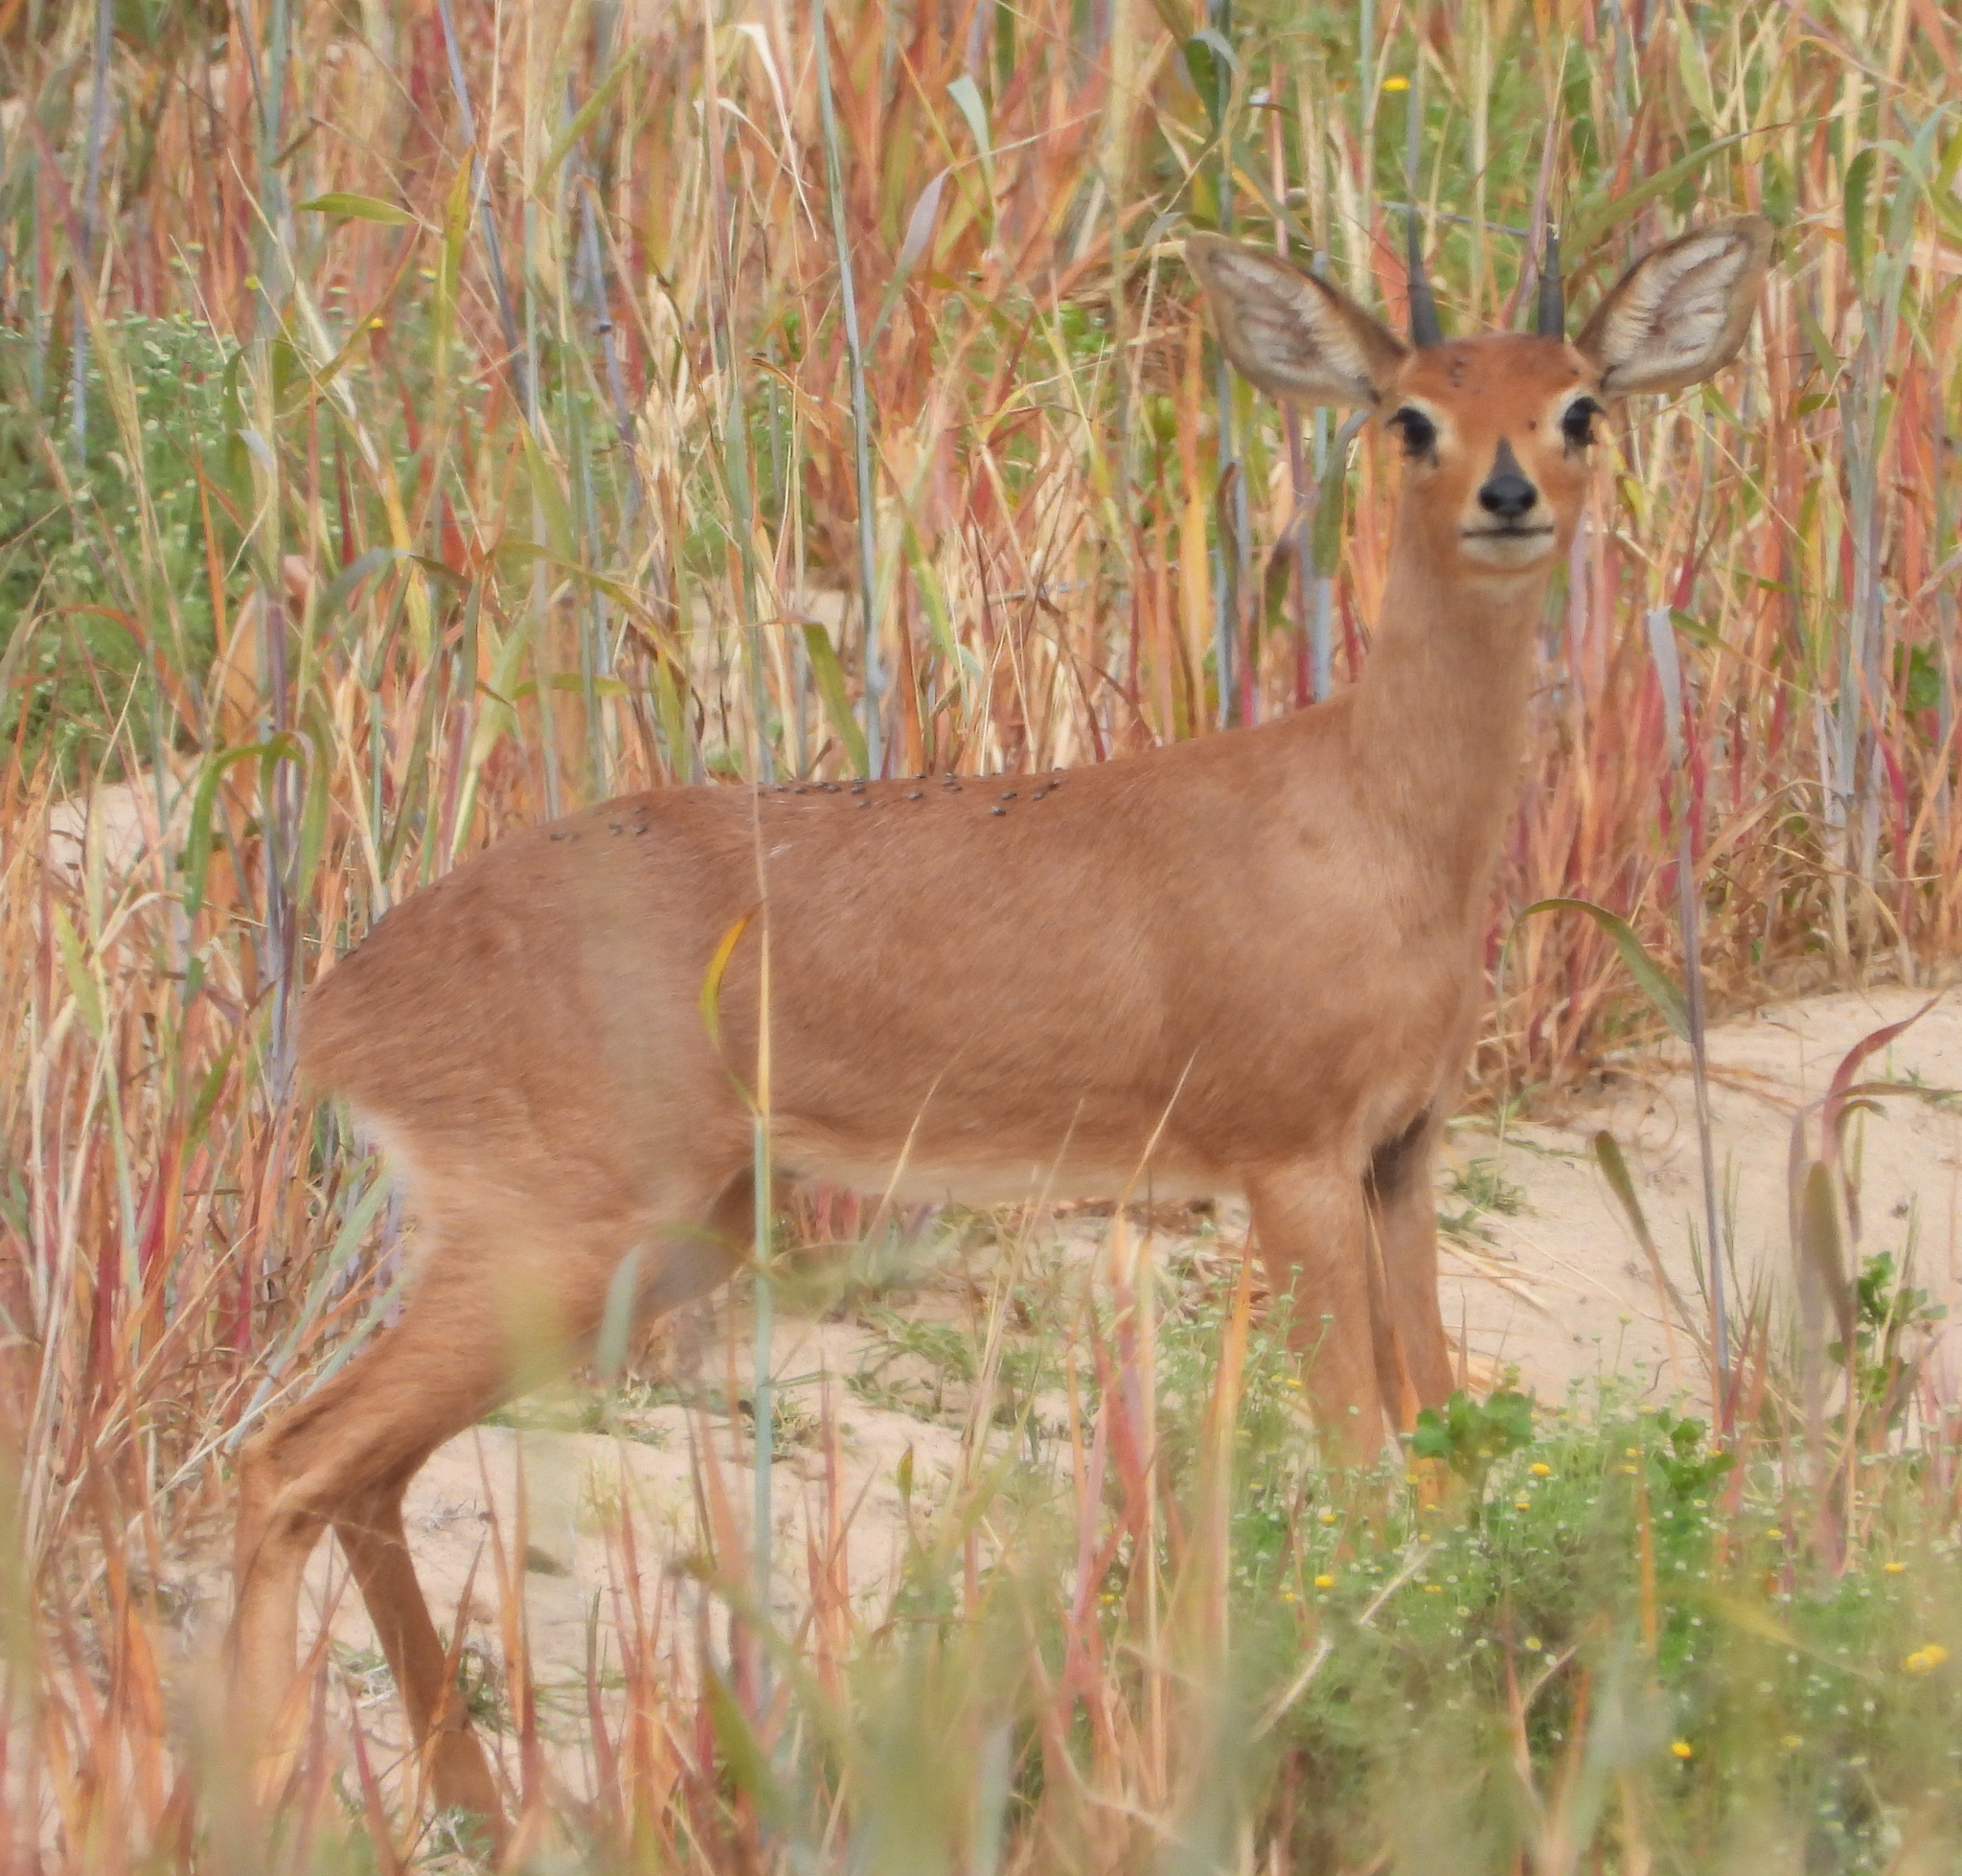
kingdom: Animalia
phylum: Chordata
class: Mammalia
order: Artiodactyla
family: Bovidae
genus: Raphicerus
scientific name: Raphicerus campestris
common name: Steenbok
